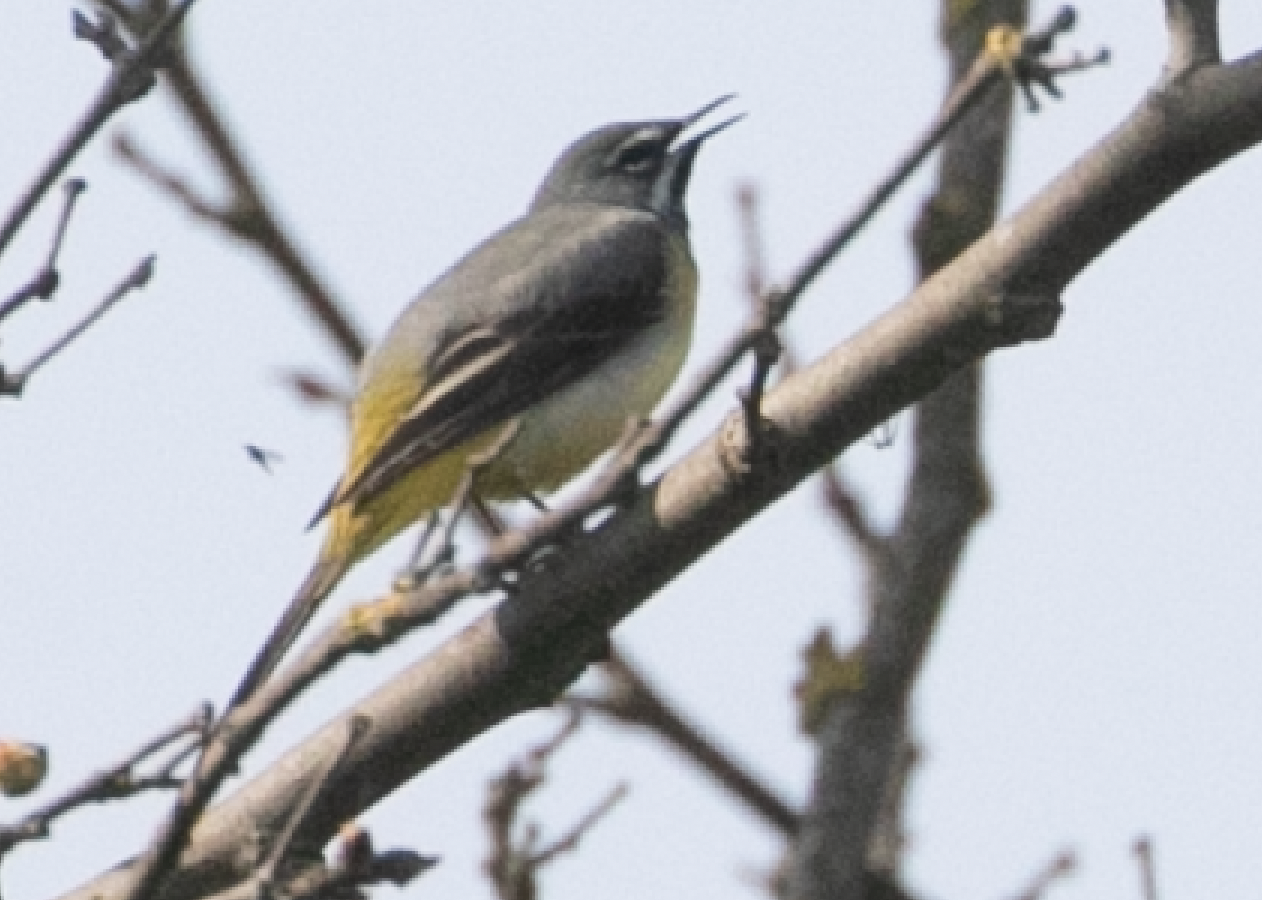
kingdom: Animalia
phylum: Chordata
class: Aves
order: Passeriformes
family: Motacillidae
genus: Motacilla
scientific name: Motacilla cinerea
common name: Grey wagtail
